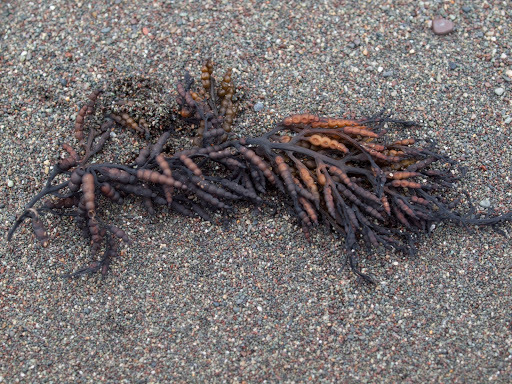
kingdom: Chromista
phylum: Ochrophyta
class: Phaeophyceae
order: Fucales
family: Sargassaceae
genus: Stephanocystis
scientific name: Stephanocystis
